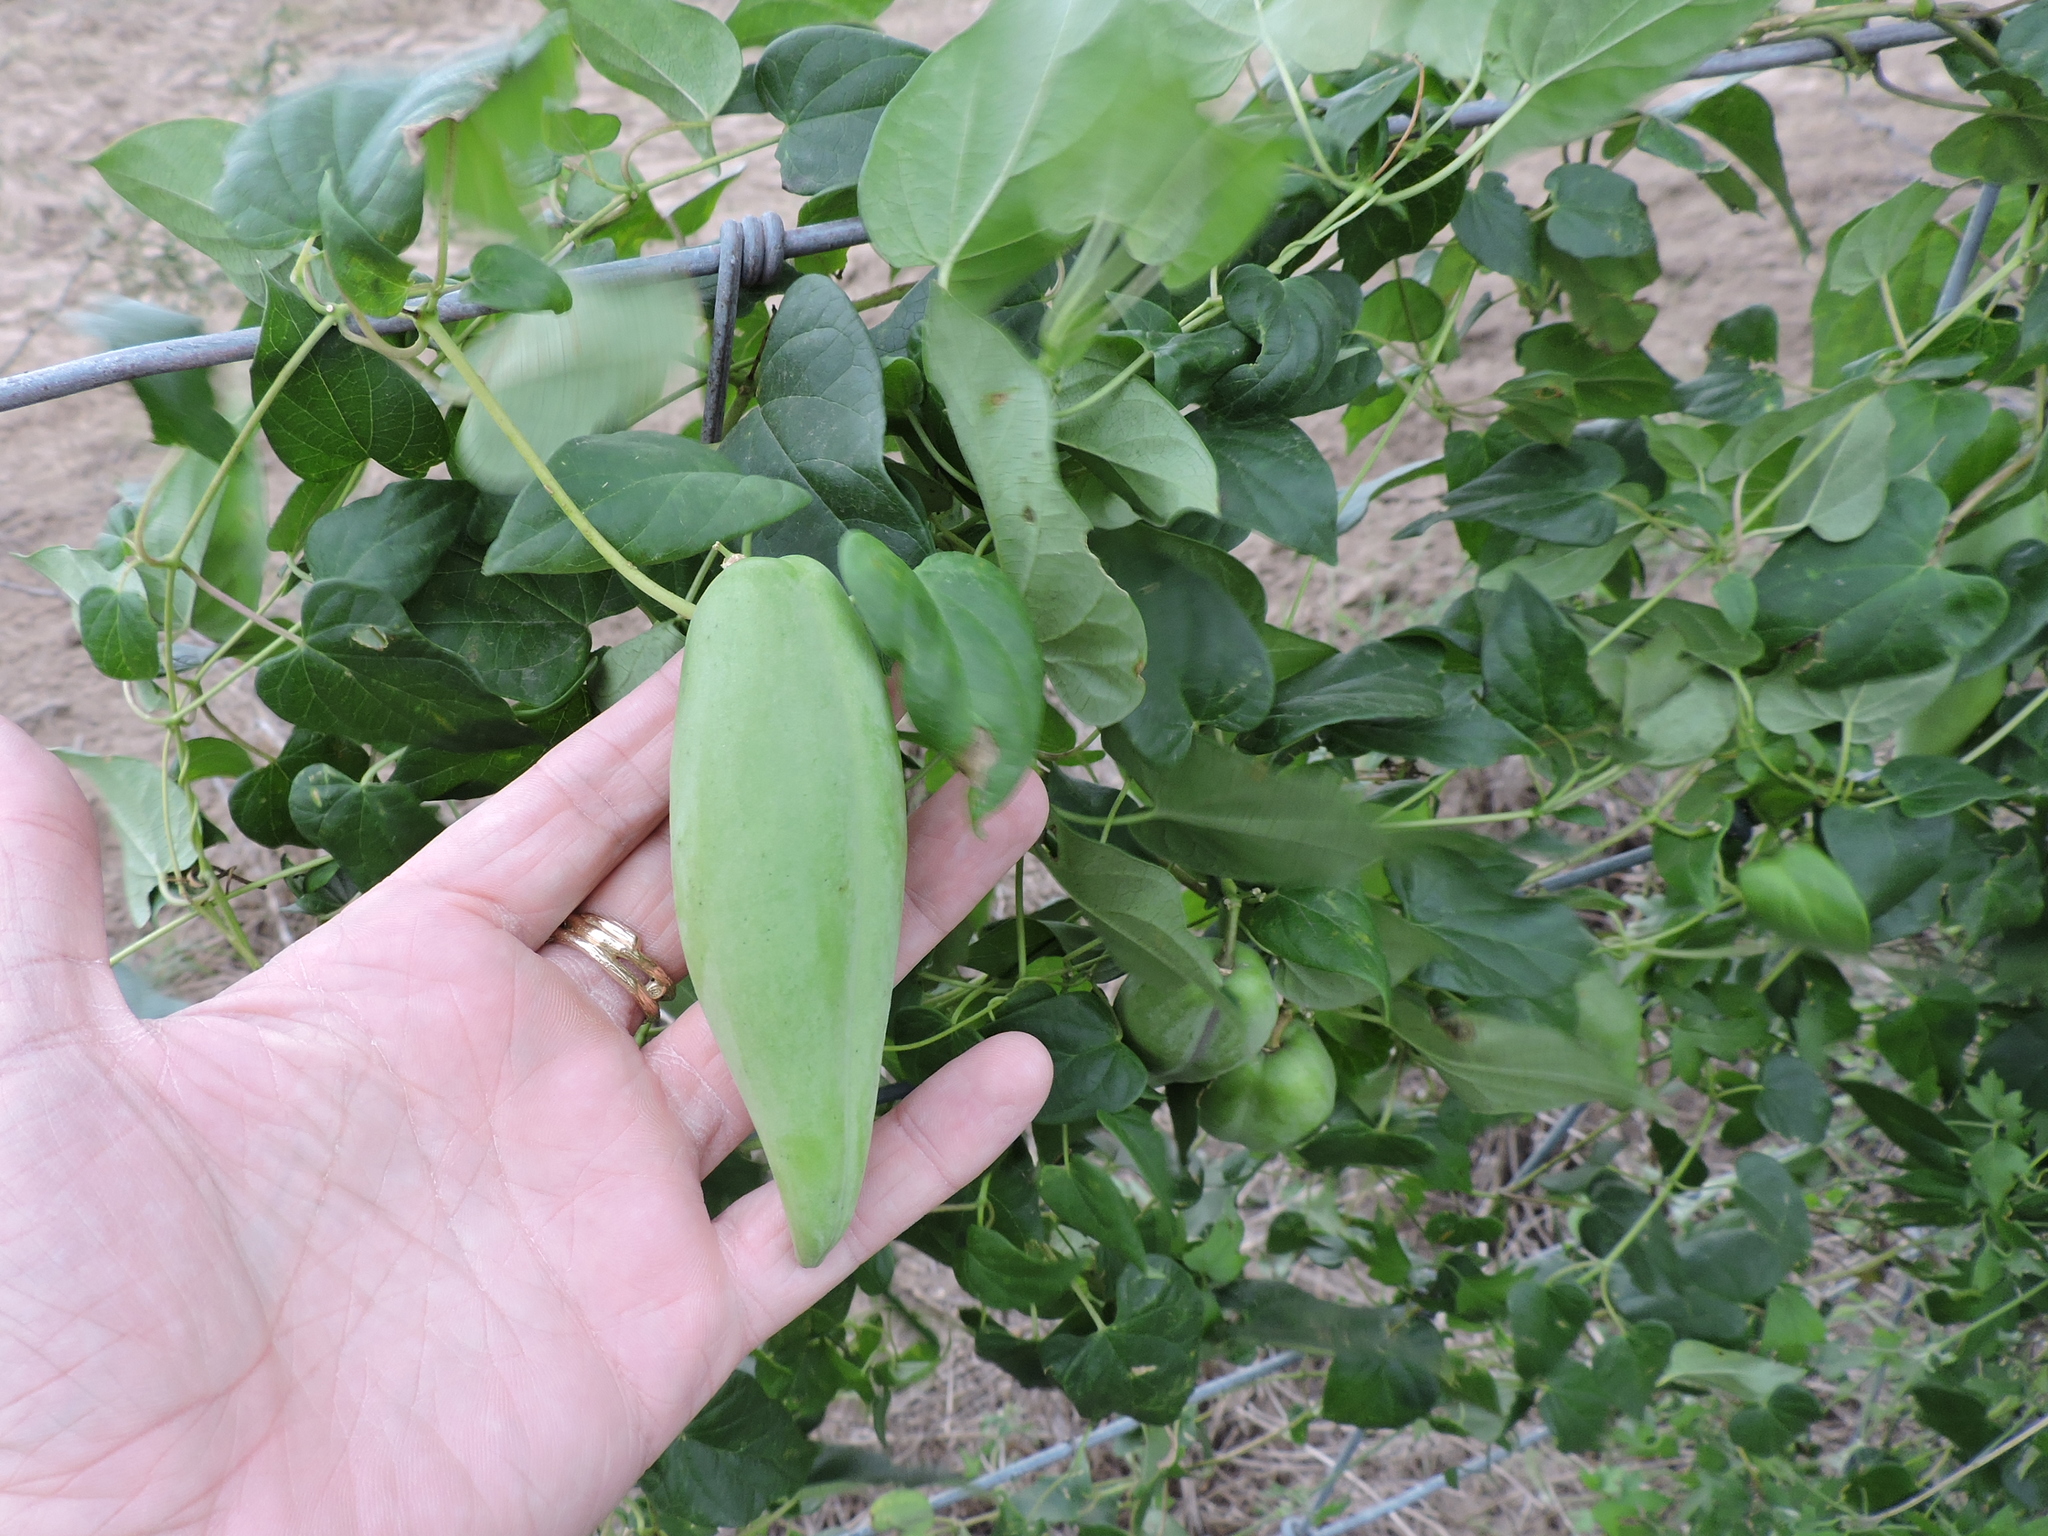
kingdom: Plantae
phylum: Tracheophyta
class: Magnoliopsida
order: Gentianales
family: Apocynaceae
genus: Cynanchum
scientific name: Cynanchum racemosum
